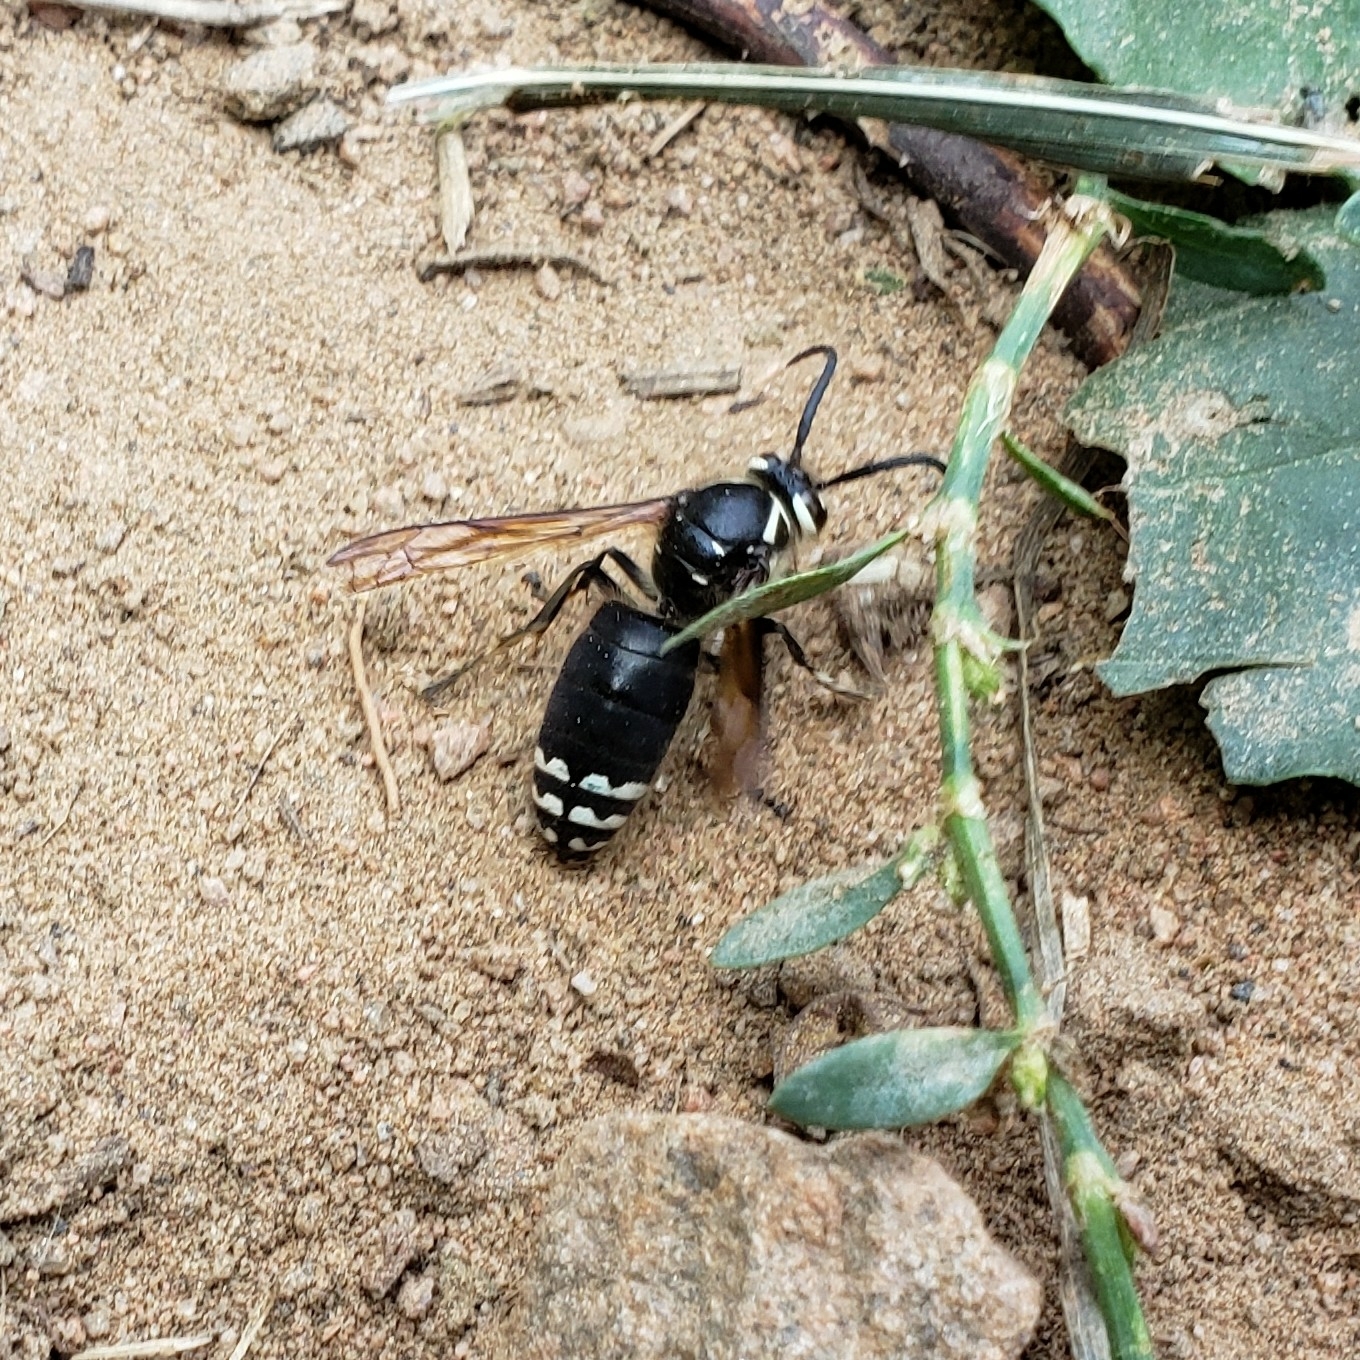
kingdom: Animalia
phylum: Arthropoda
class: Insecta
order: Hymenoptera
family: Vespidae
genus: Dolichovespula
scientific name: Dolichovespula maculata
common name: Bald-faced hornet
